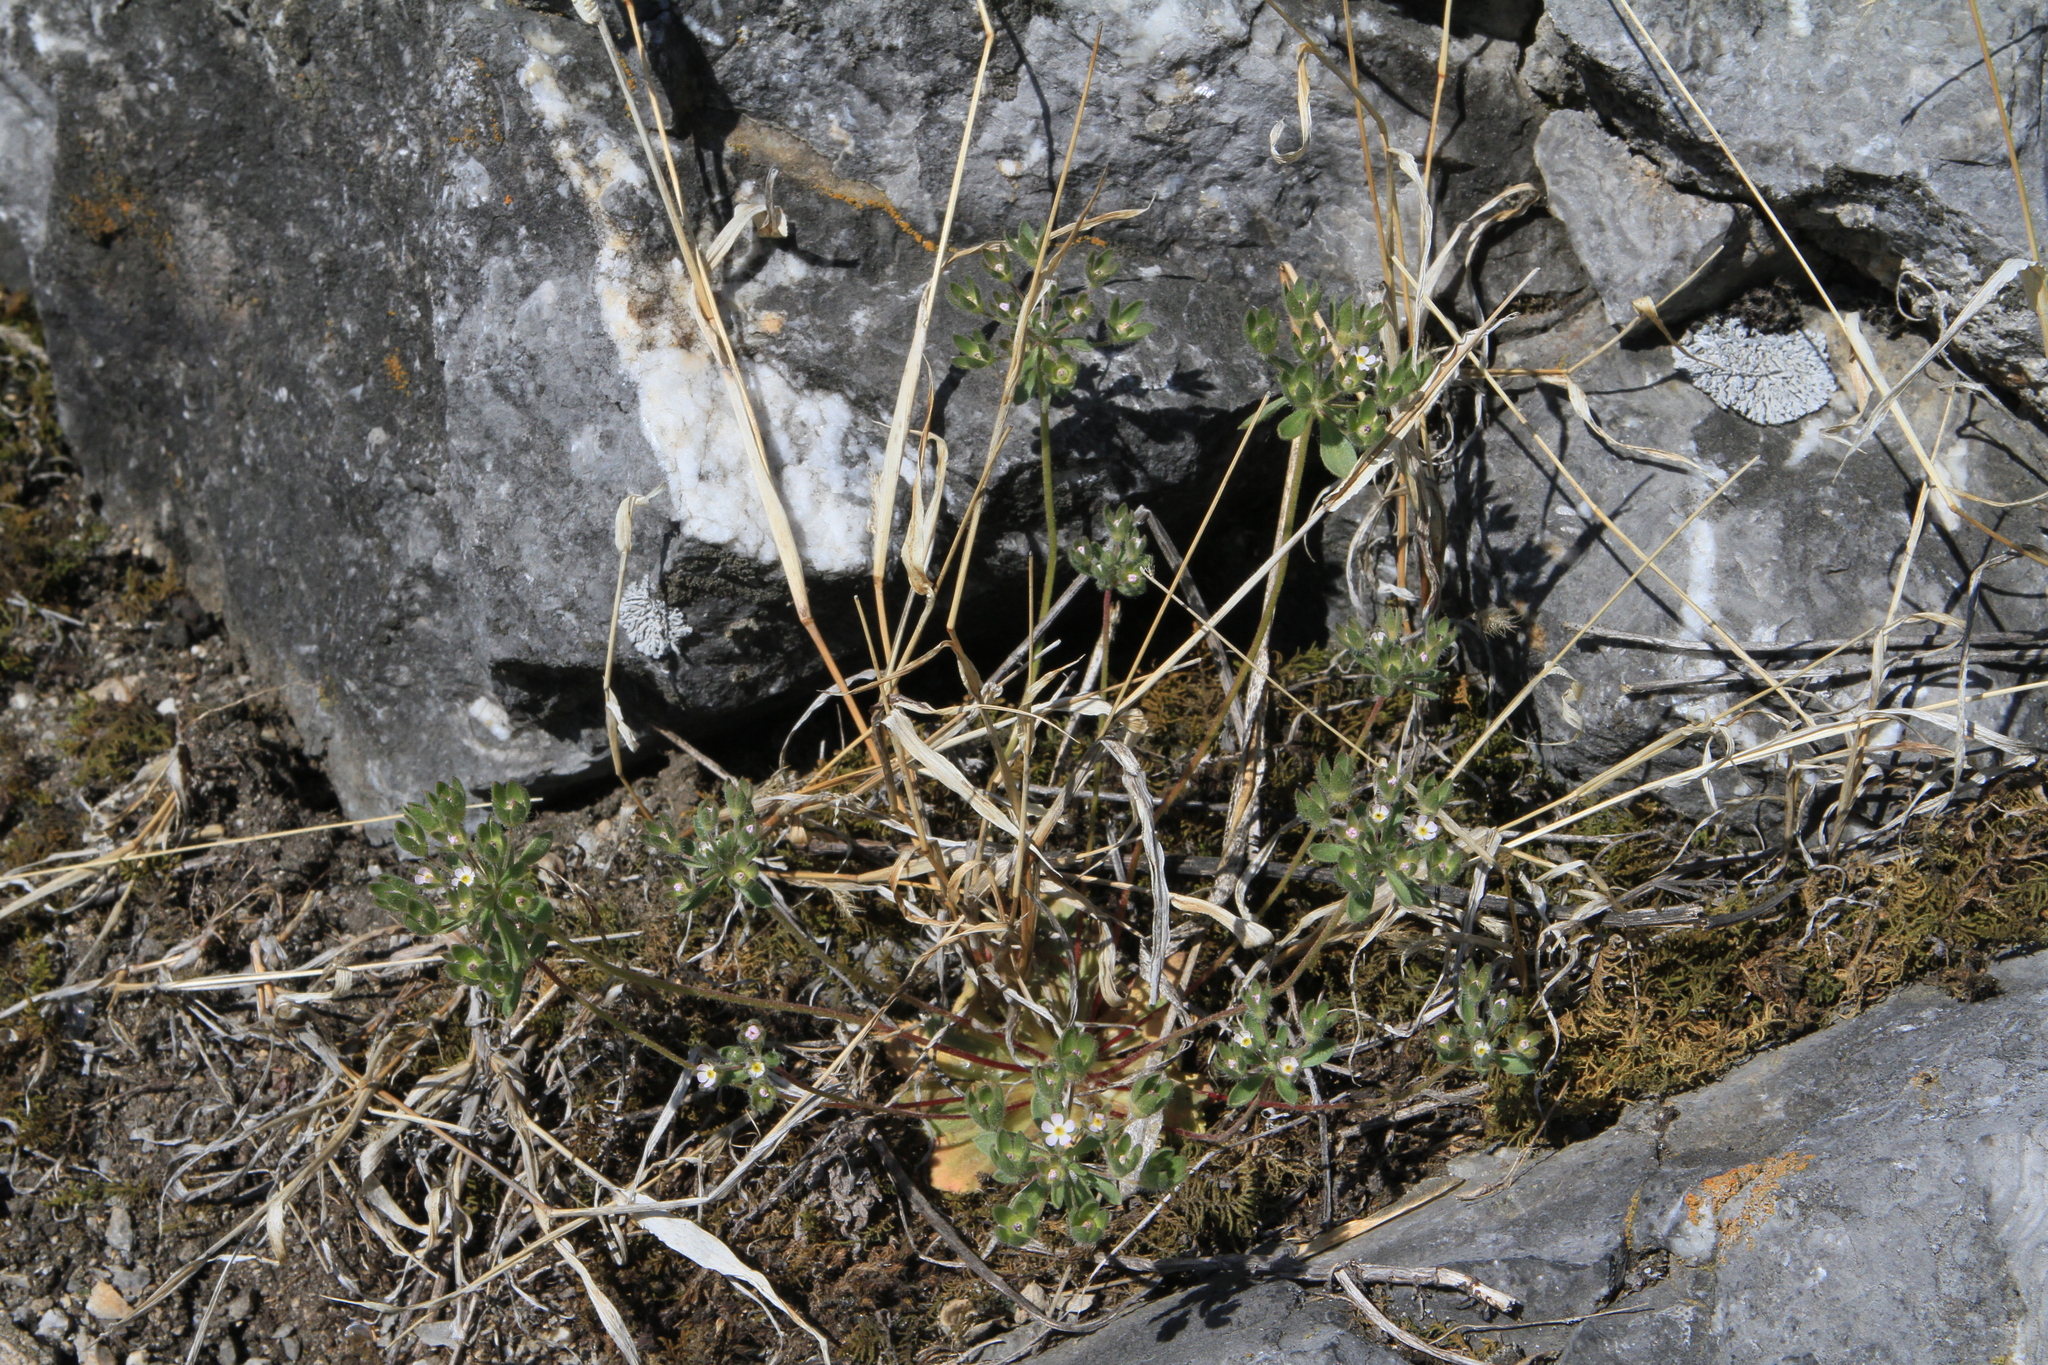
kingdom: Plantae
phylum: Tracheophyta
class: Magnoliopsida
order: Ericales
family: Primulaceae
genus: Androsace
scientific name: Androsace maxima
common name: Annual androsace
